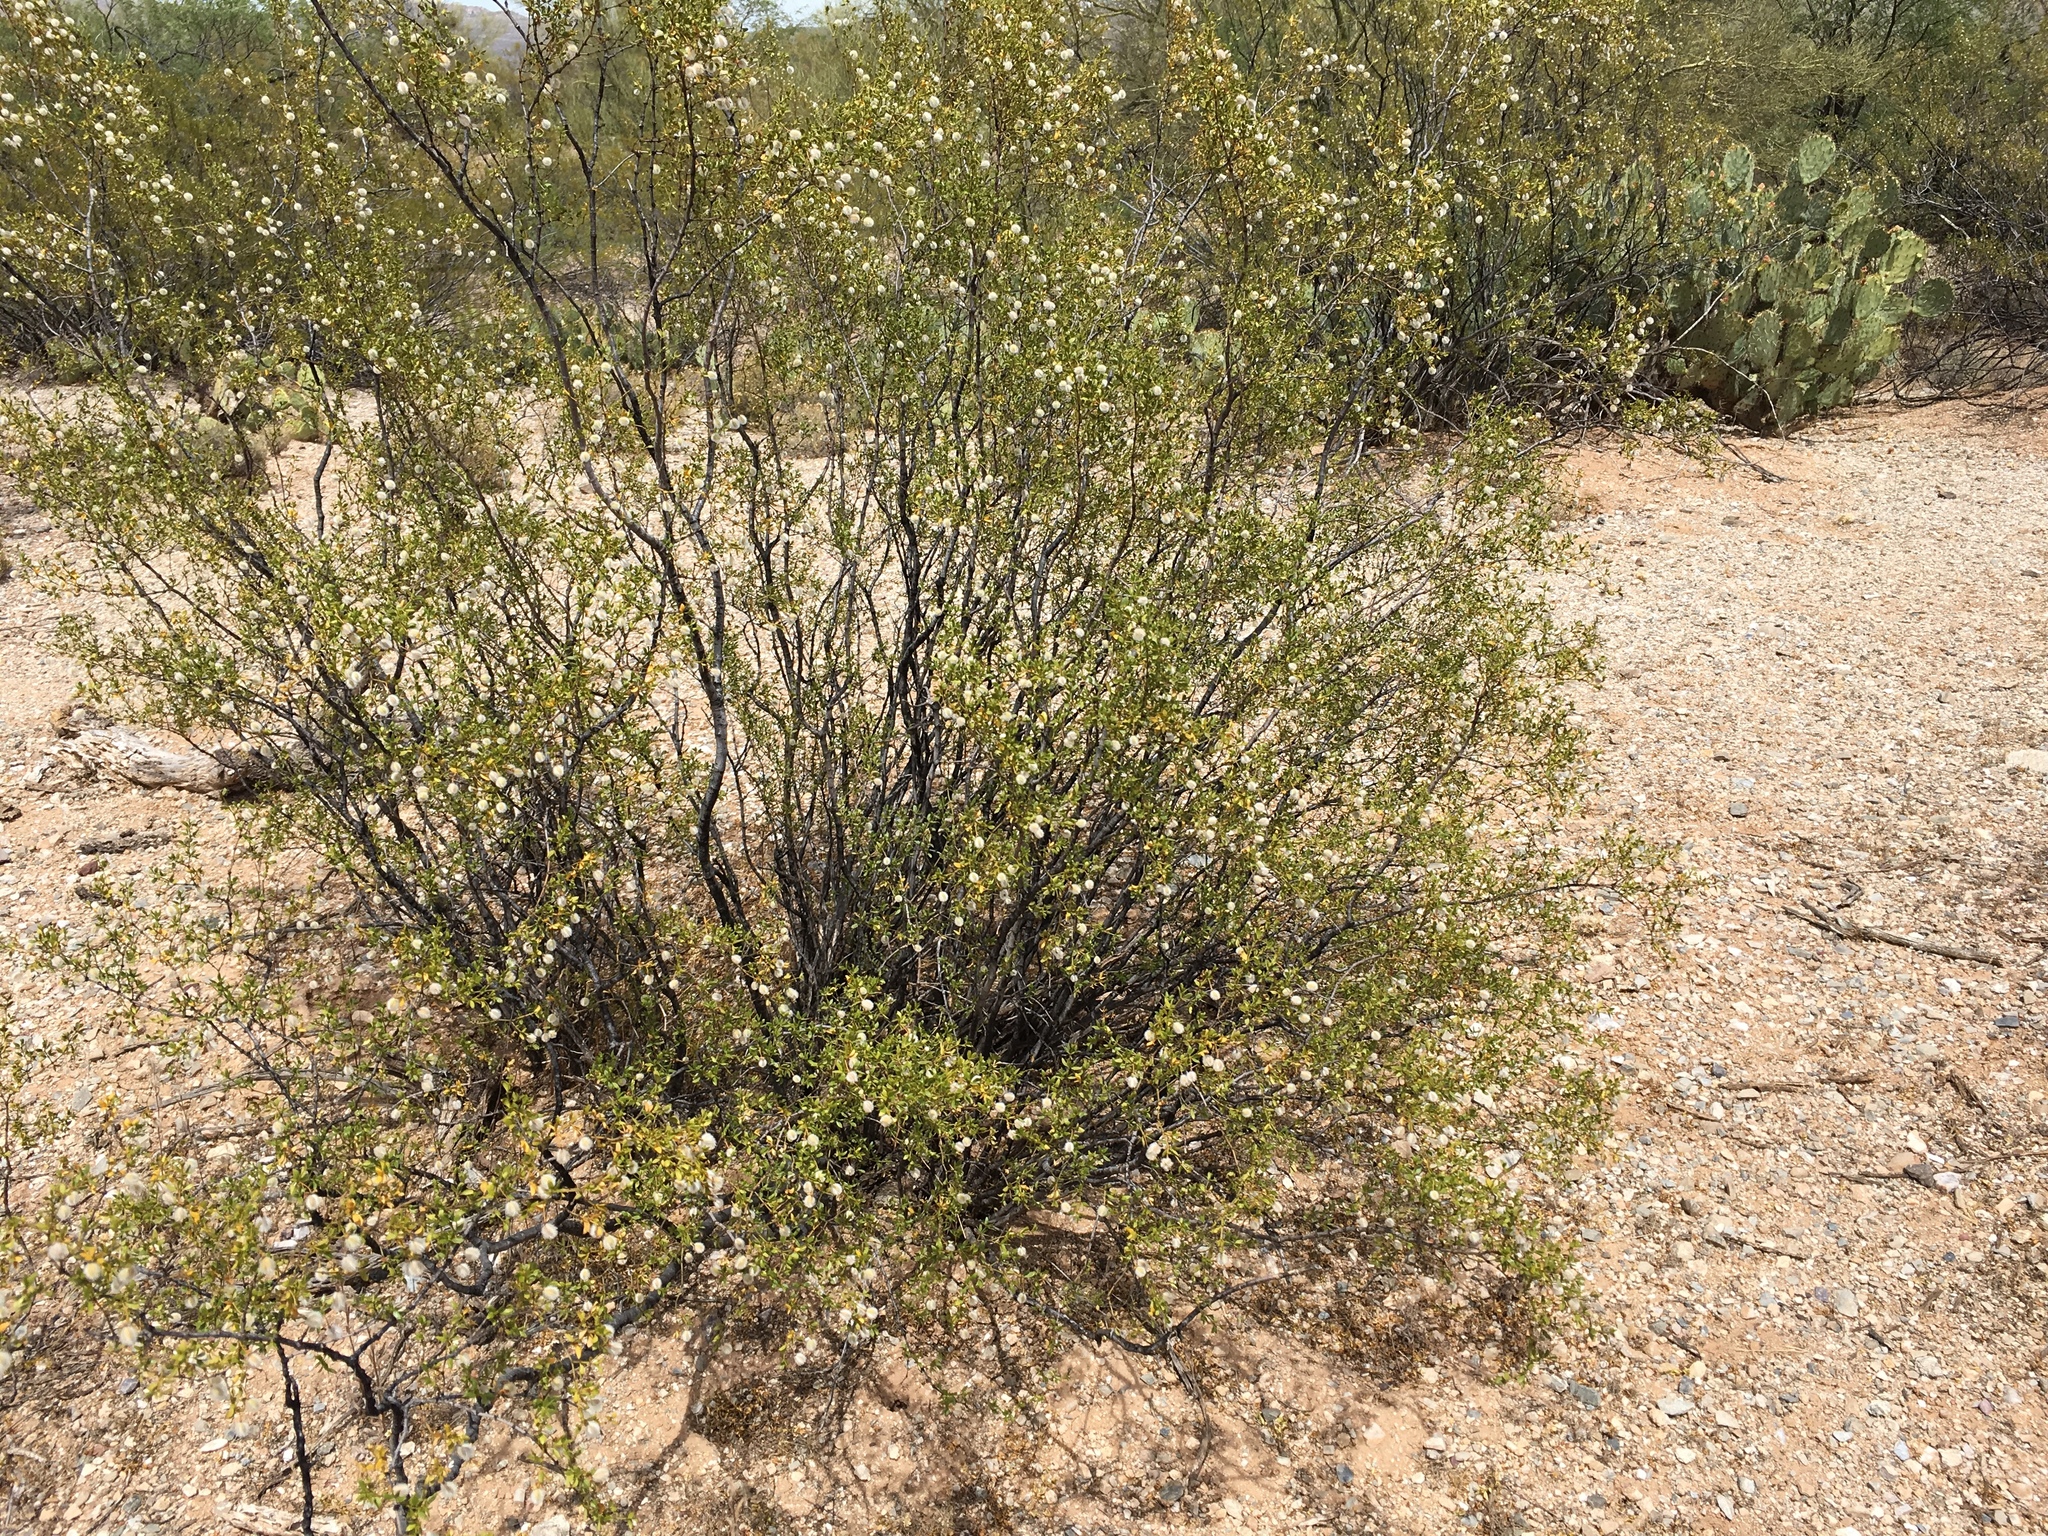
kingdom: Plantae
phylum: Tracheophyta
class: Magnoliopsida
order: Zygophyllales
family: Zygophyllaceae
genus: Larrea
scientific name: Larrea tridentata
